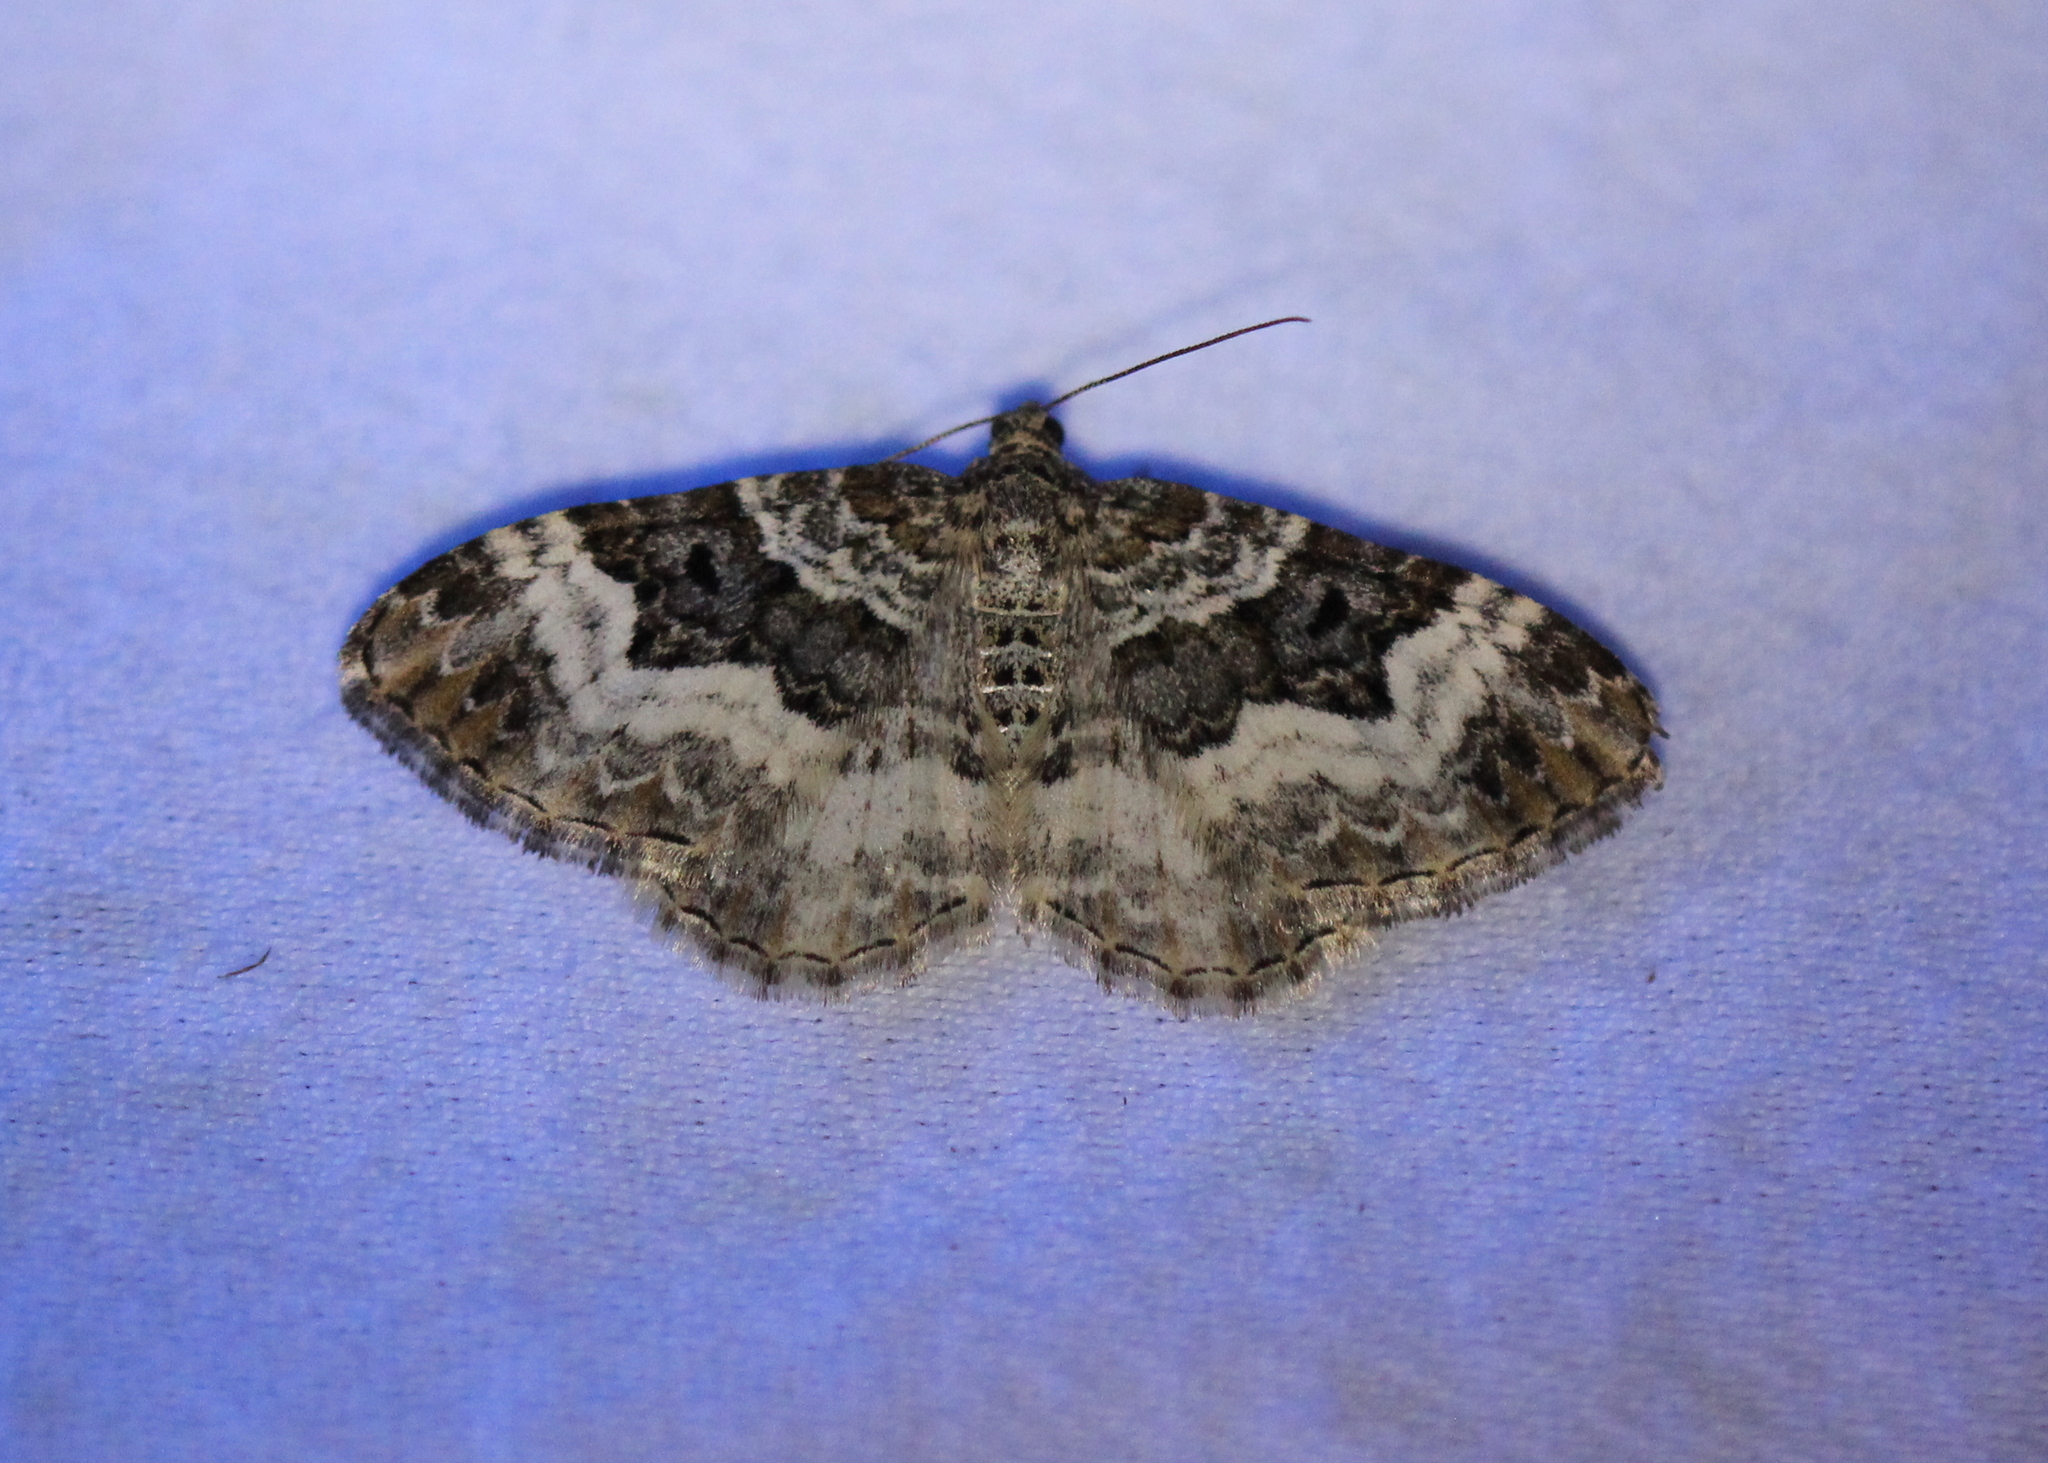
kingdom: Animalia
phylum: Arthropoda
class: Insecta
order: Lepidoptera
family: Geometridae
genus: Epirrhoe
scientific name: Epirrhoe alternata
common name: Common carpet
